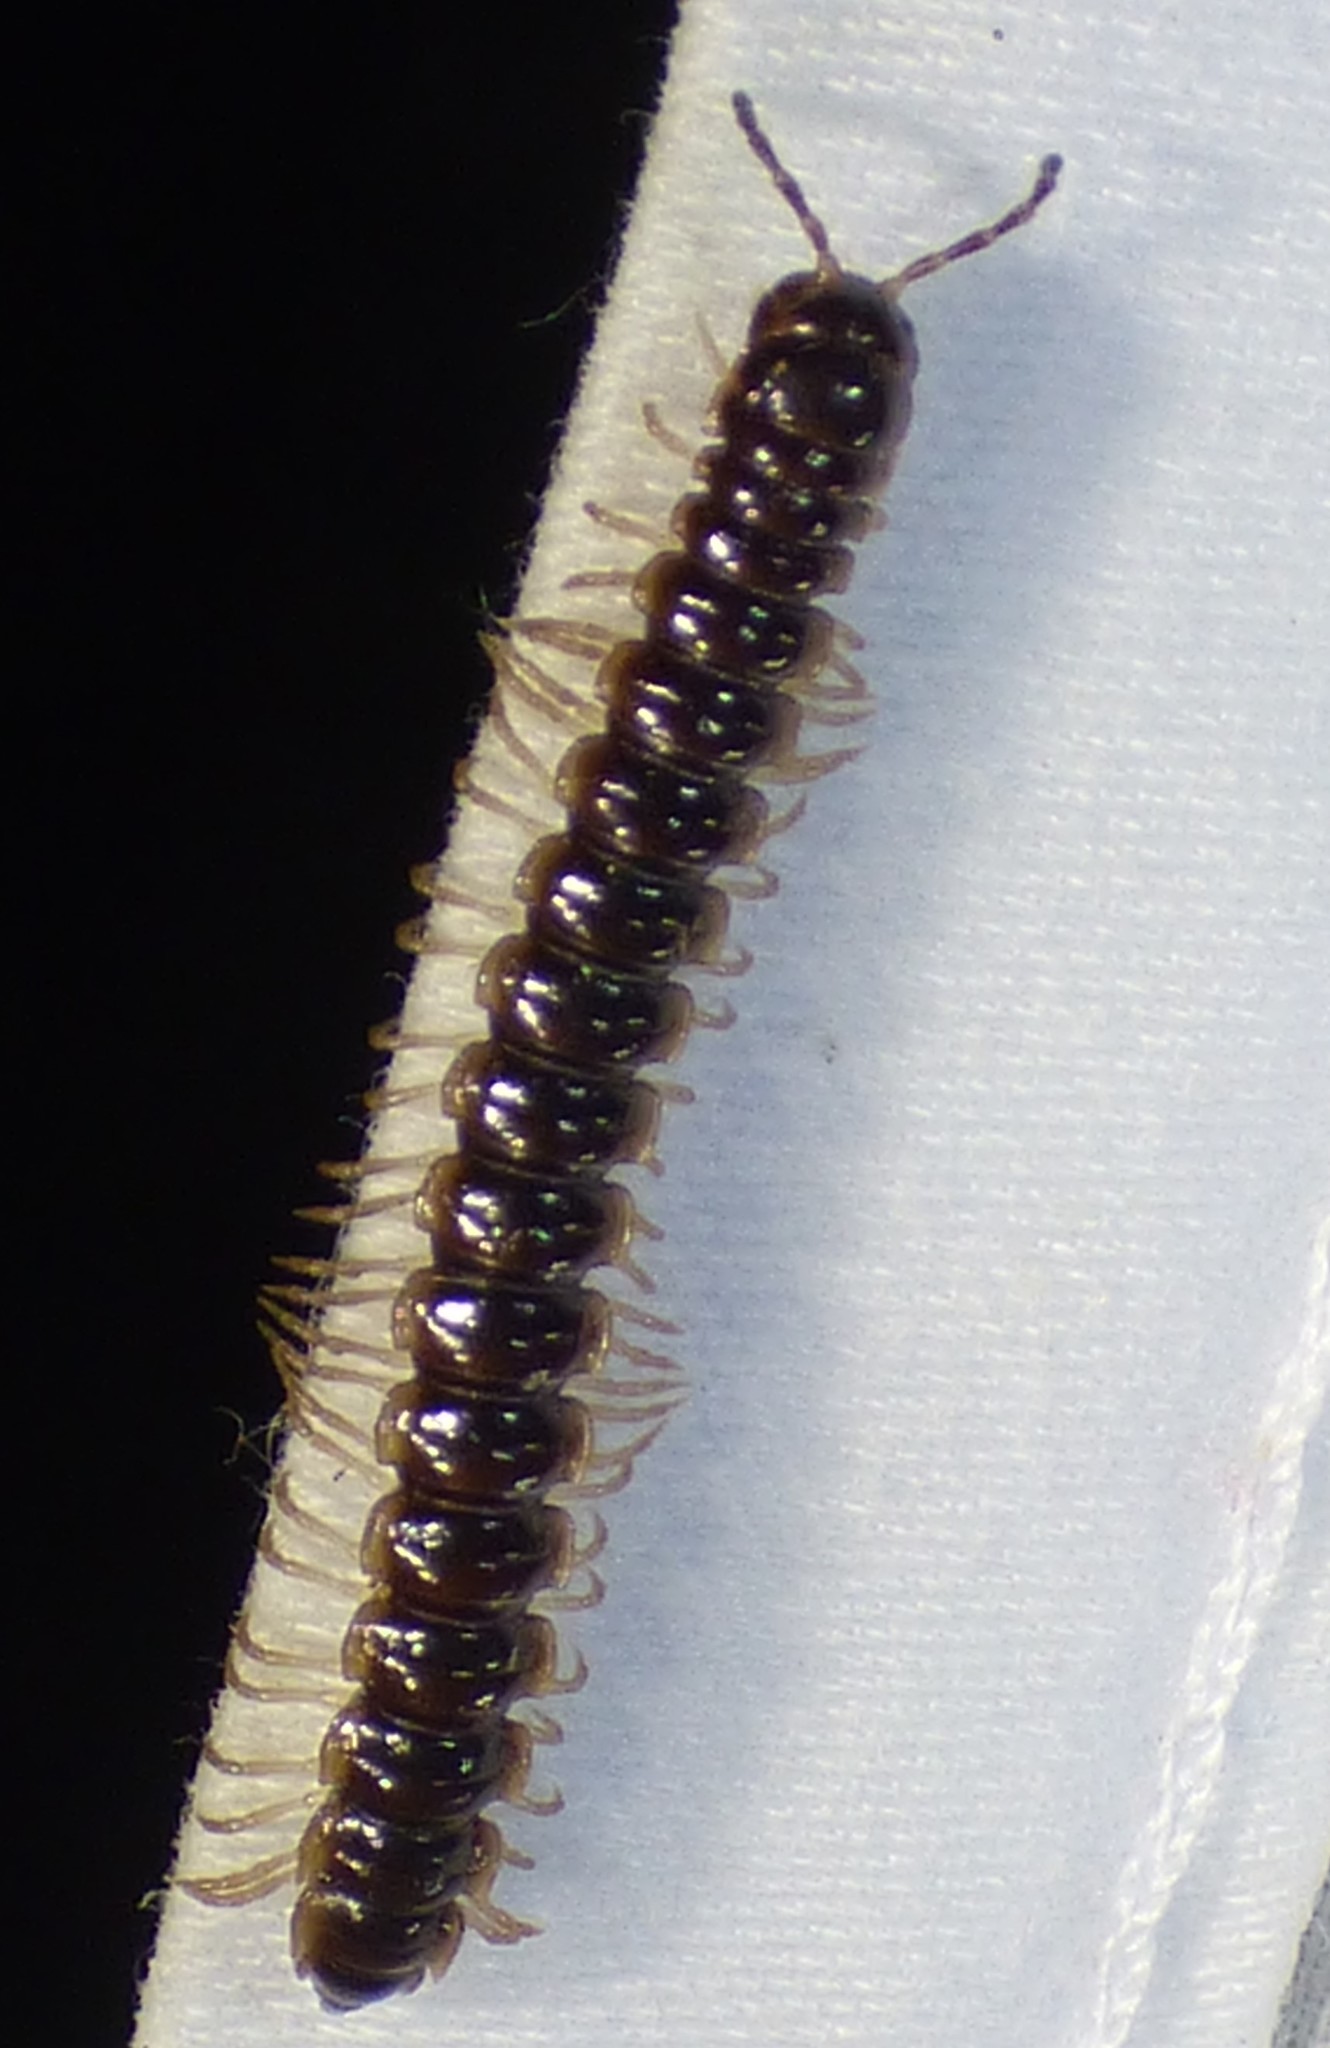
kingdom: Animalia
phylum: Arthropoda
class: Diplopoda
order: Polydesmida
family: Paradoxosomatidae
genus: Oxidus
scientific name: Oxidus gracilis
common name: Greenhouse millipede
